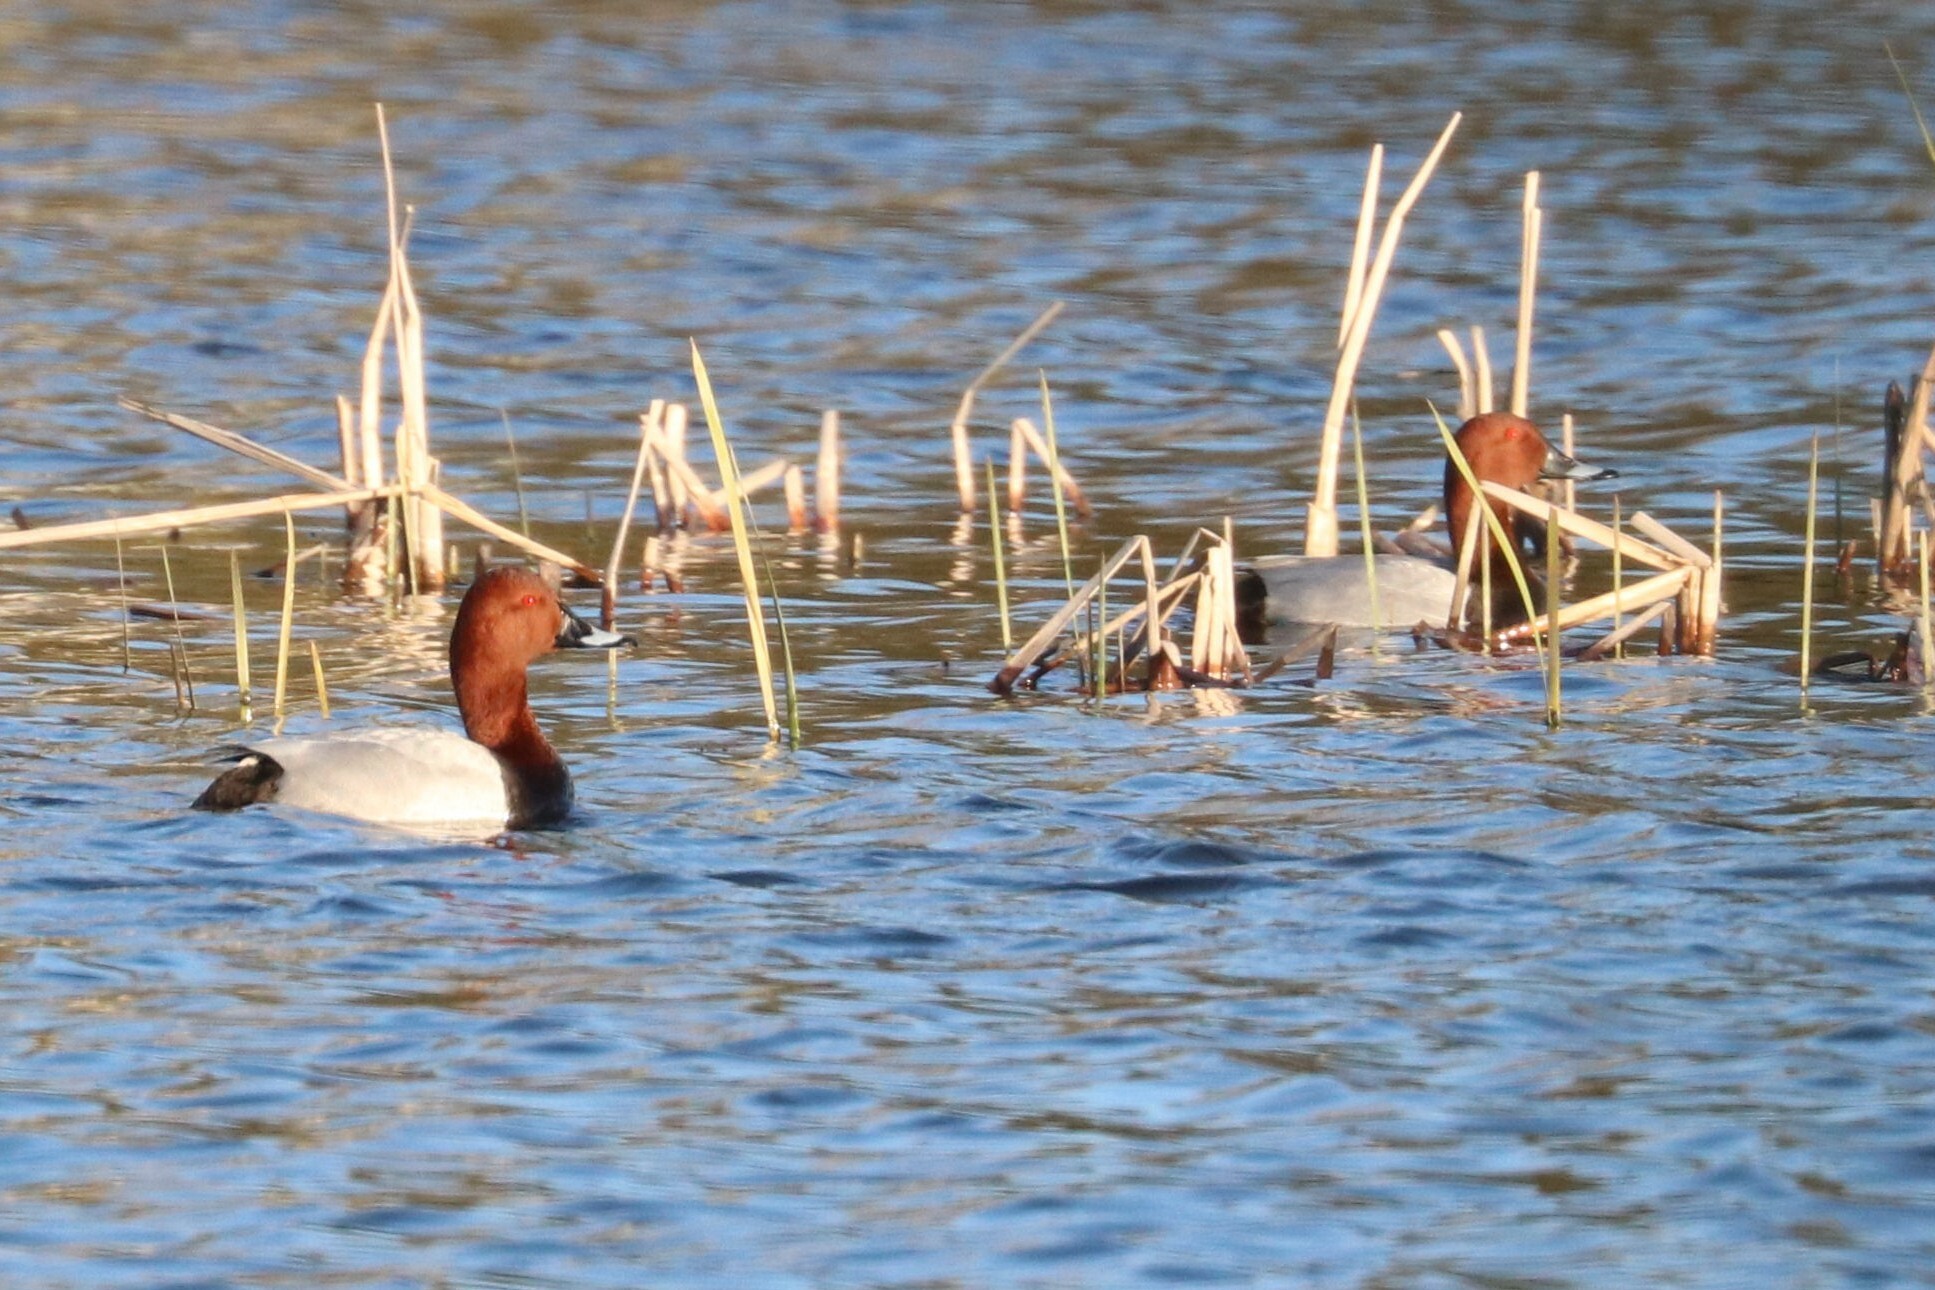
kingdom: Animalia
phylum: Chordata
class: Aves
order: Anseriformes
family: Anatidae
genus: Aythya
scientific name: Aythya ferina
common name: Common pochard
